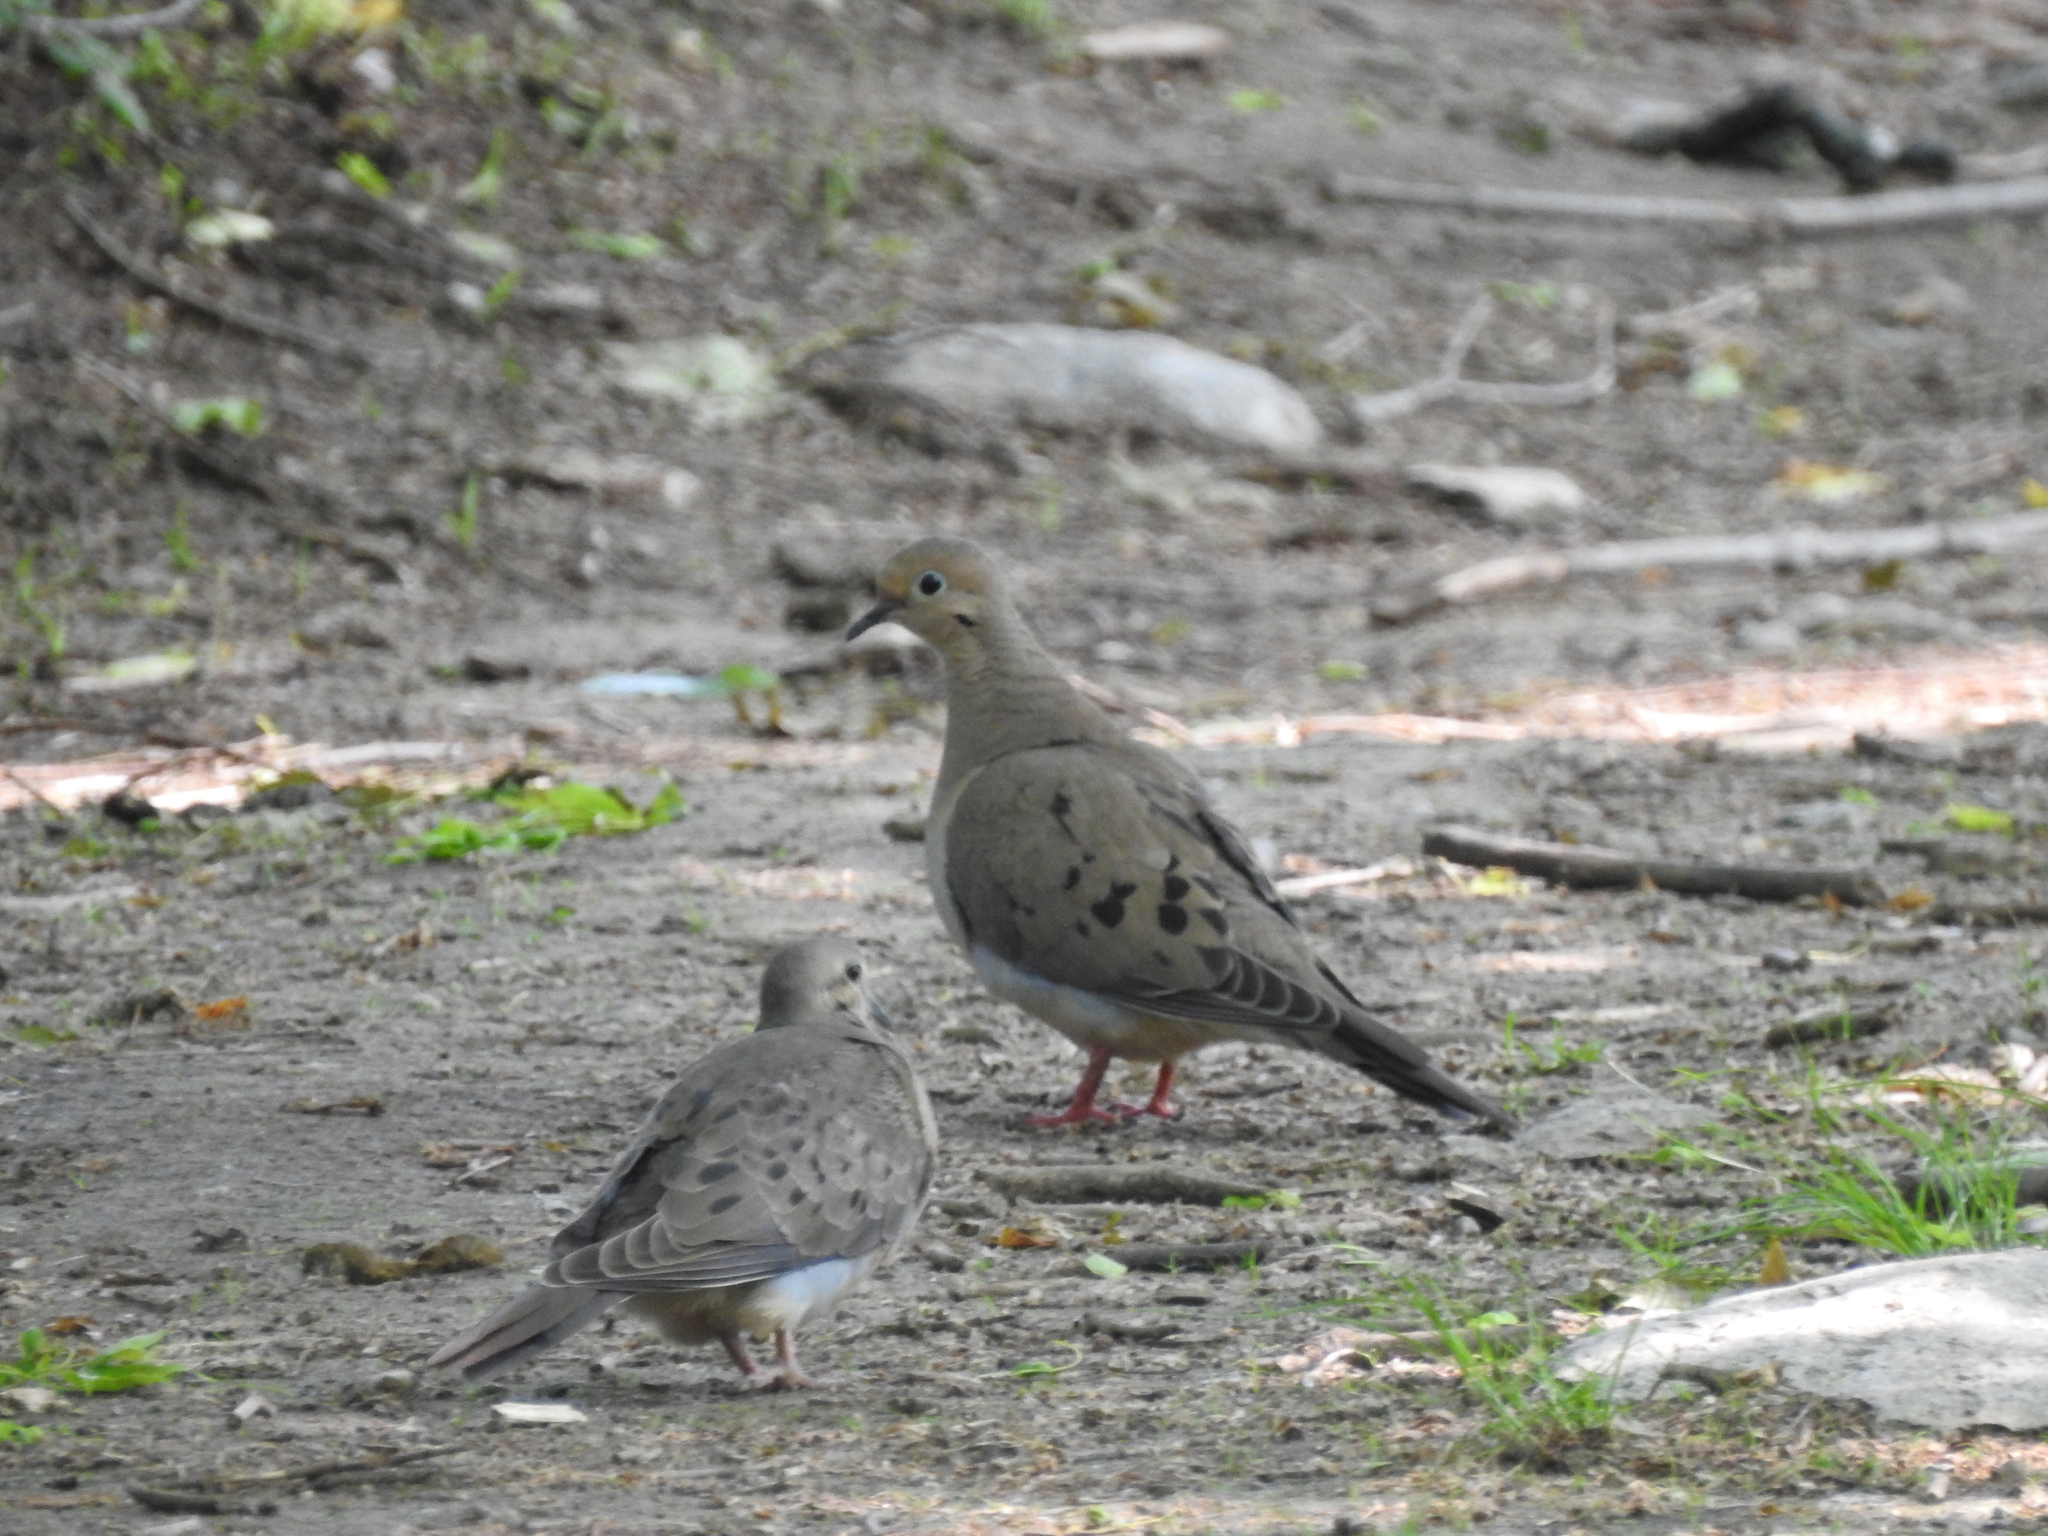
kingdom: Animalia
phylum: Chordata
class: Aves
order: Columbiformes
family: Columbidae
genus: Zenaida
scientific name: Zenaida macroura
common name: Mourning dove
